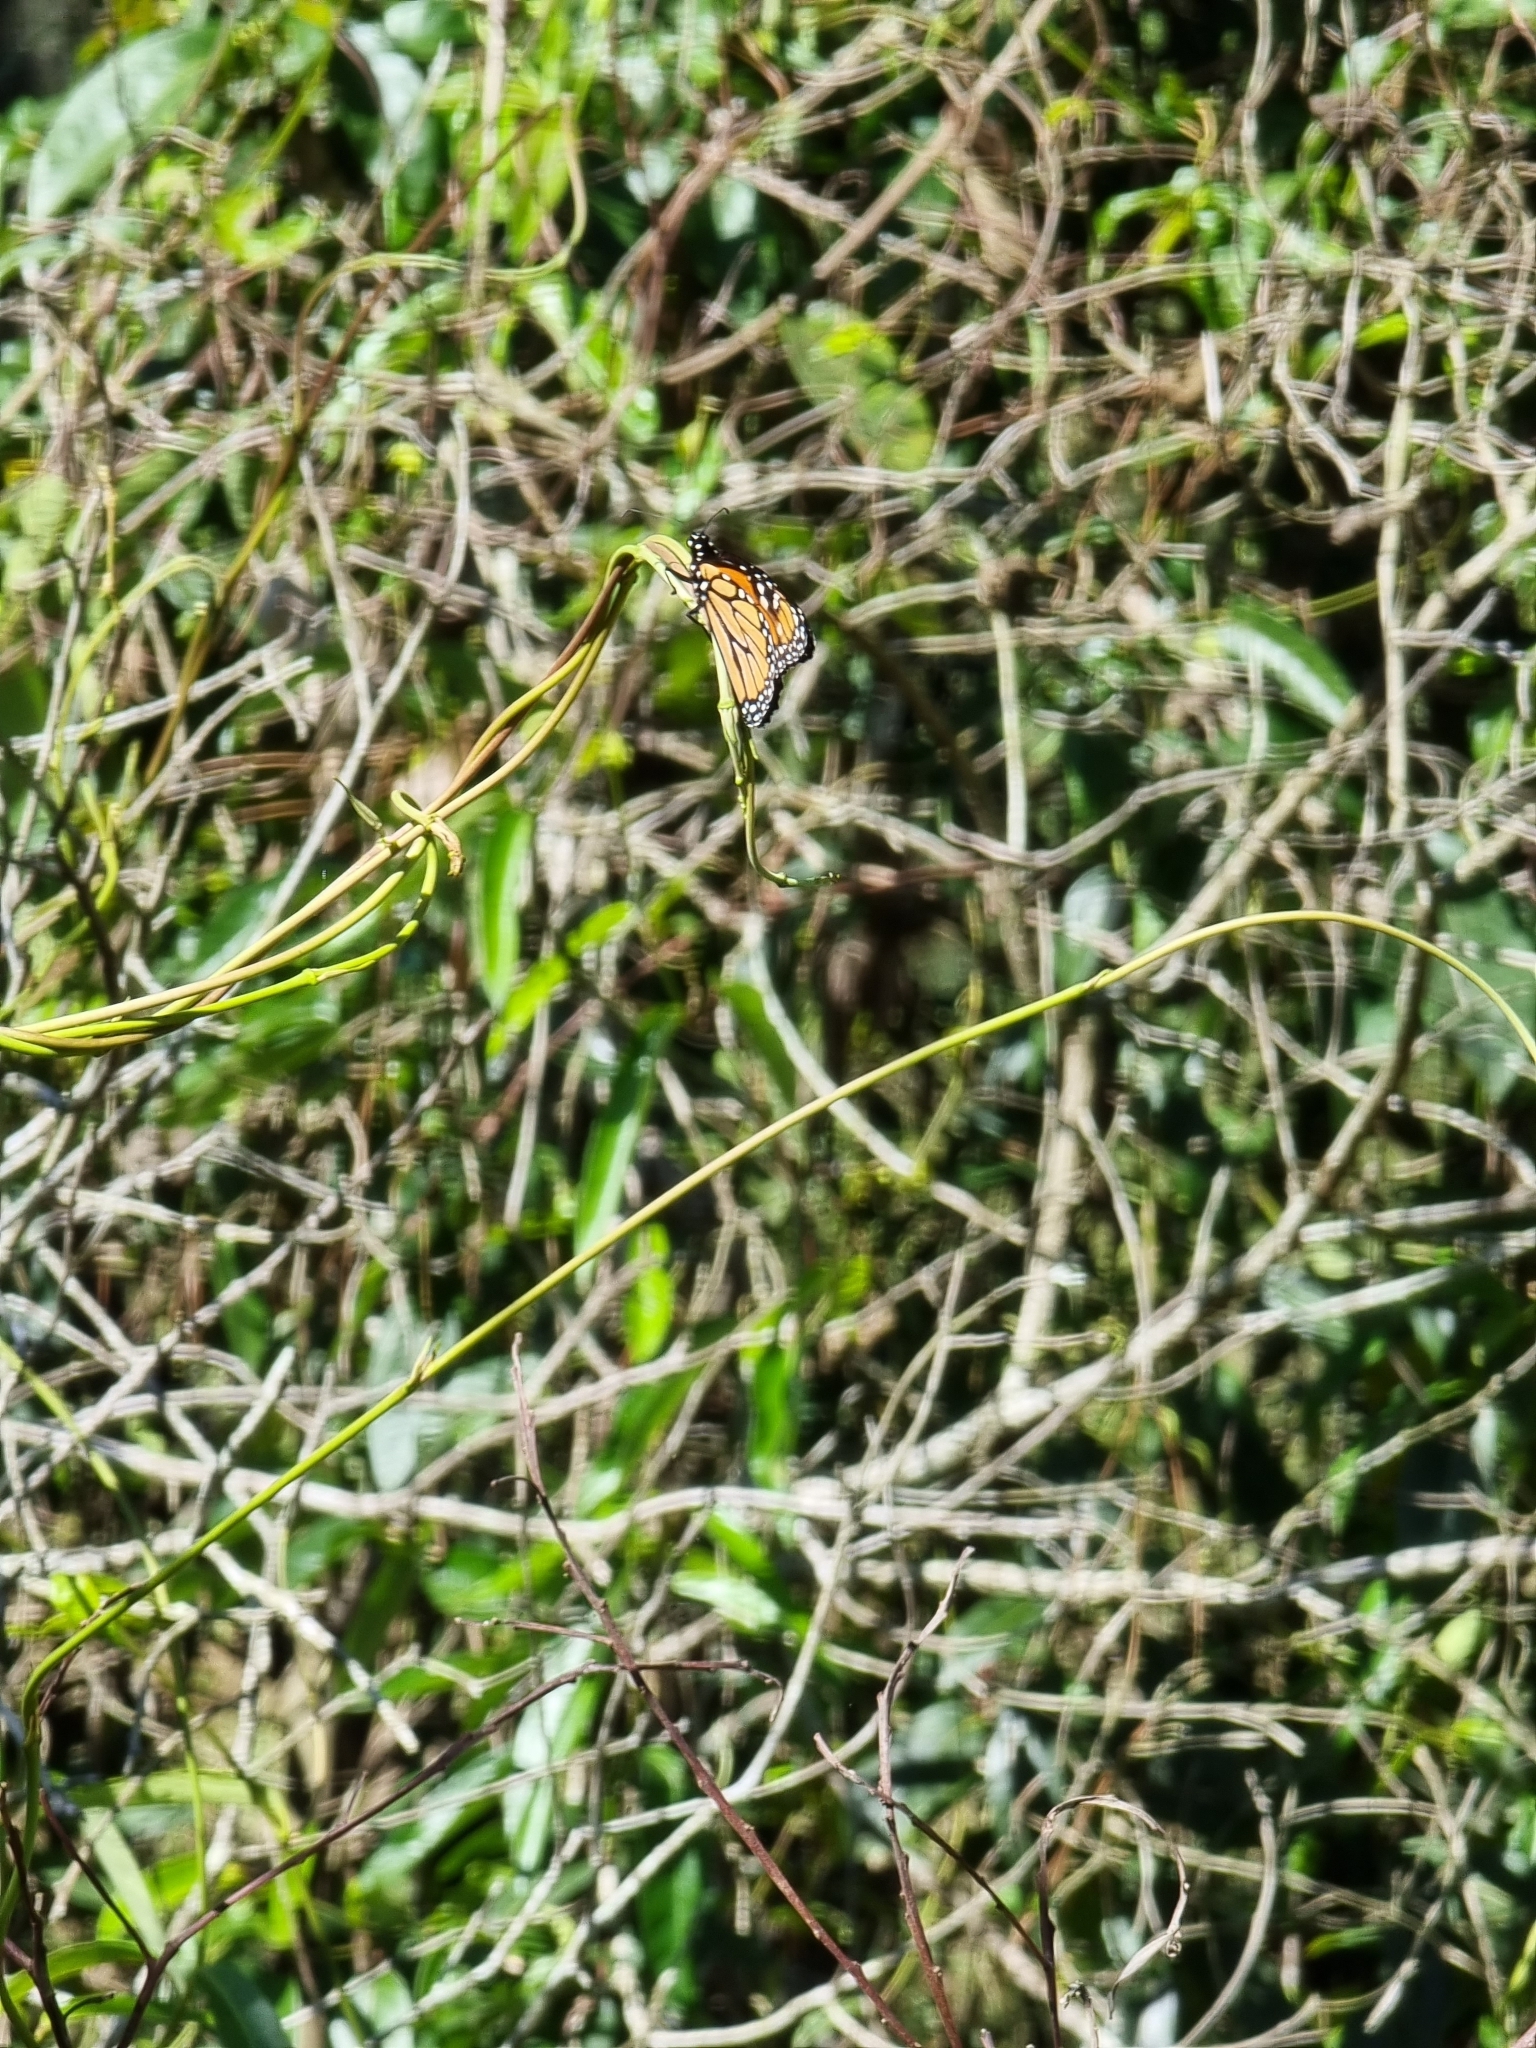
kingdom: Animalia
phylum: Arthropoda
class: Insecta
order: Lepidoptera
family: Nymphalidae
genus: Danaus
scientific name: Danaus plexippus
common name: Monarch
